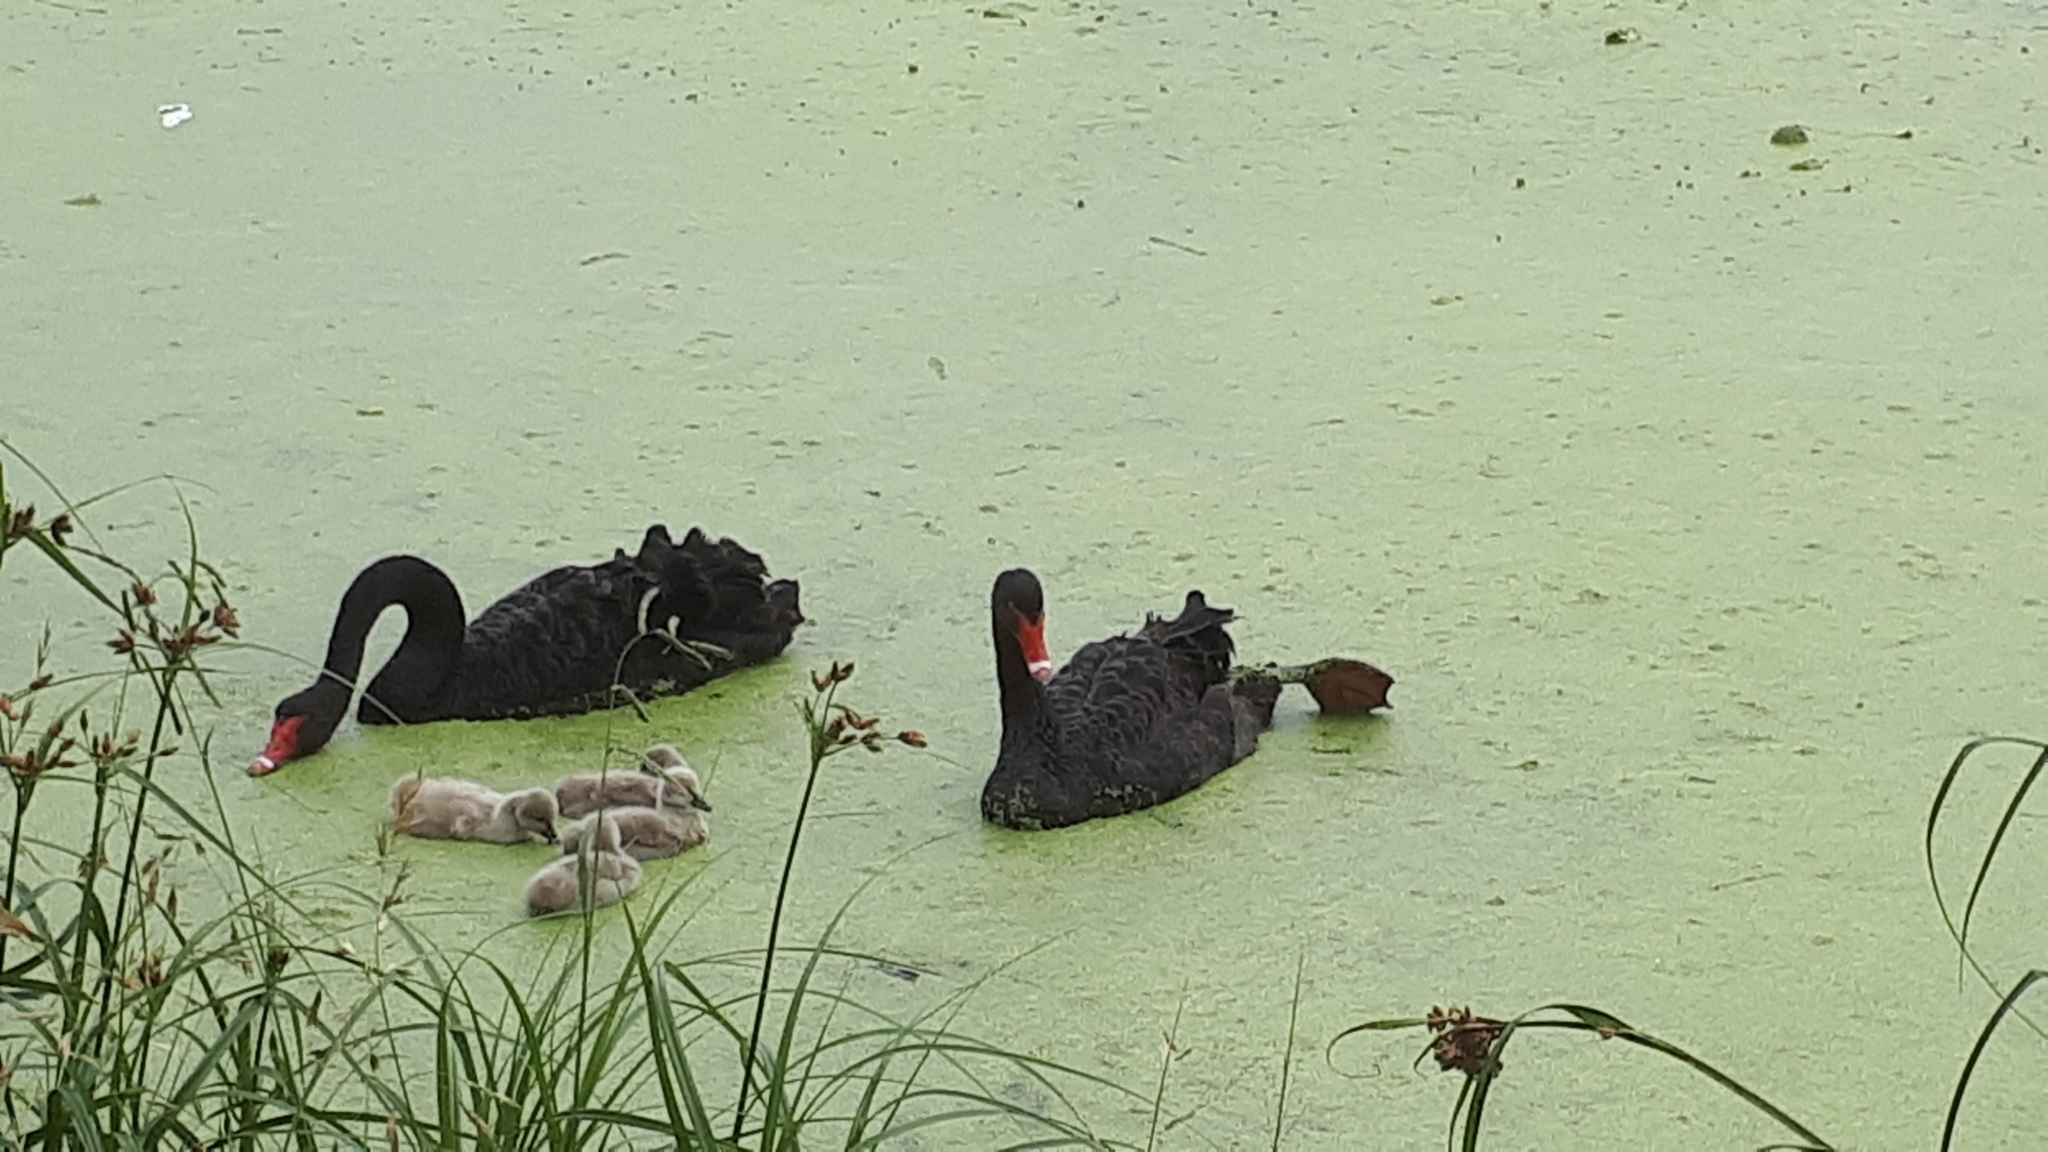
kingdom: Animalia
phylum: Chordata
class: Aves
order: Anseriformes
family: Anatidae
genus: Cygnus
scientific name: Cygnus atratus
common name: Black swan
